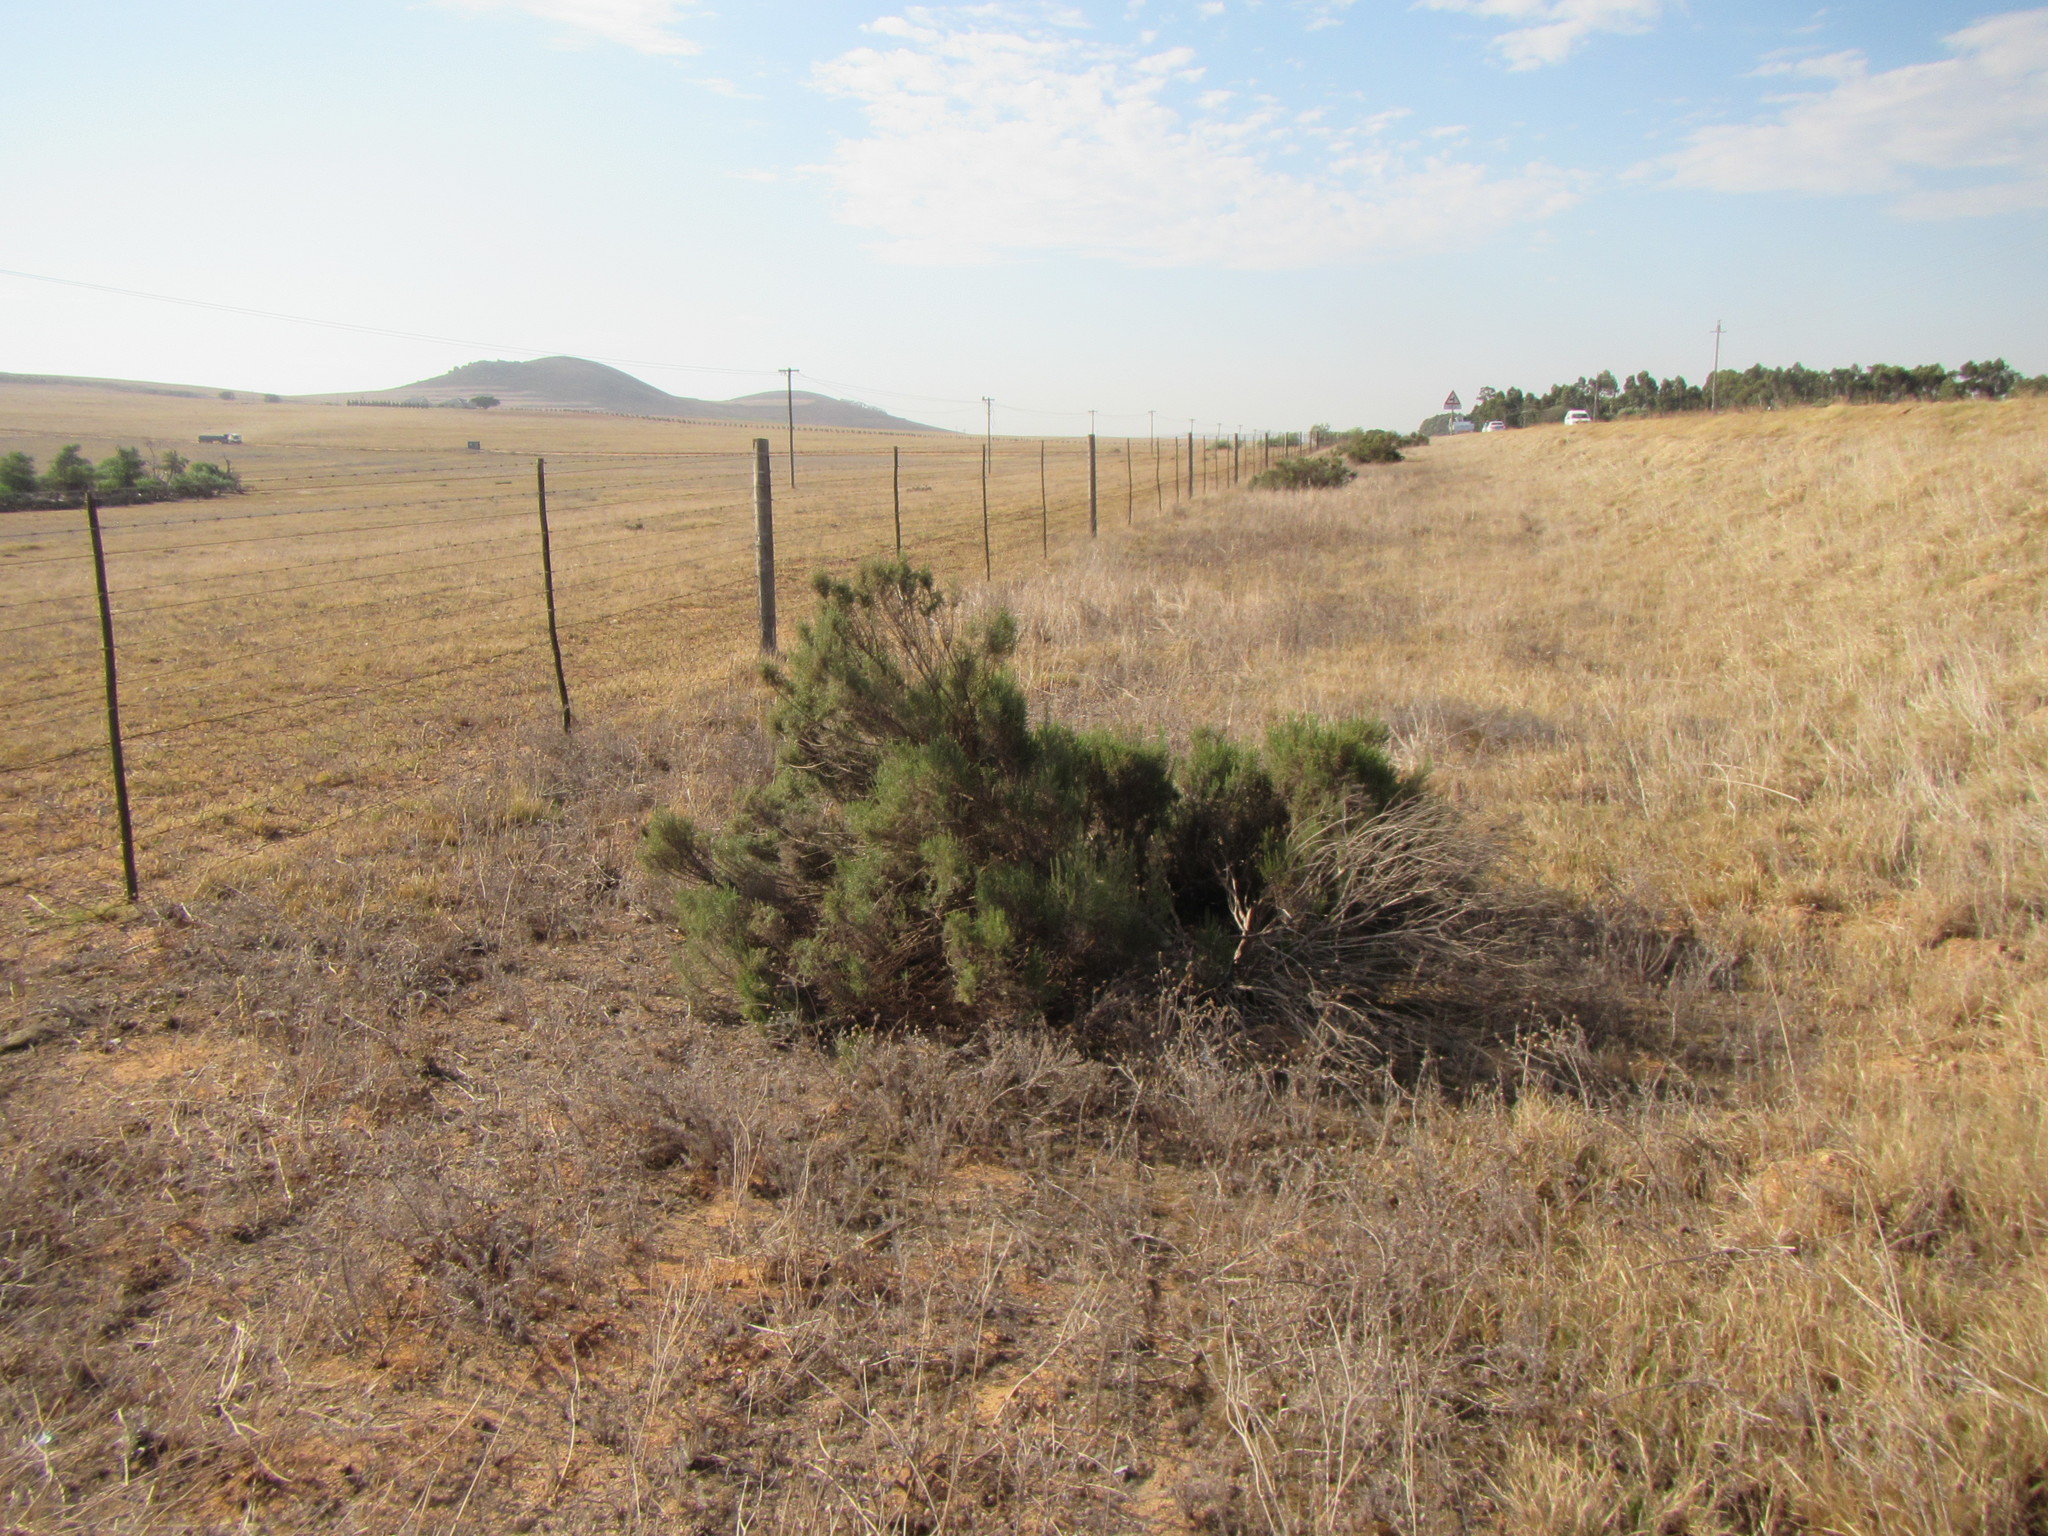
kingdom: Plantae
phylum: Tracheophyta
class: Magnoliopsida
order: Asterales
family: Asteraceae
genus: Dicerothamnus
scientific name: Dicerothamnus rhinocerotis
